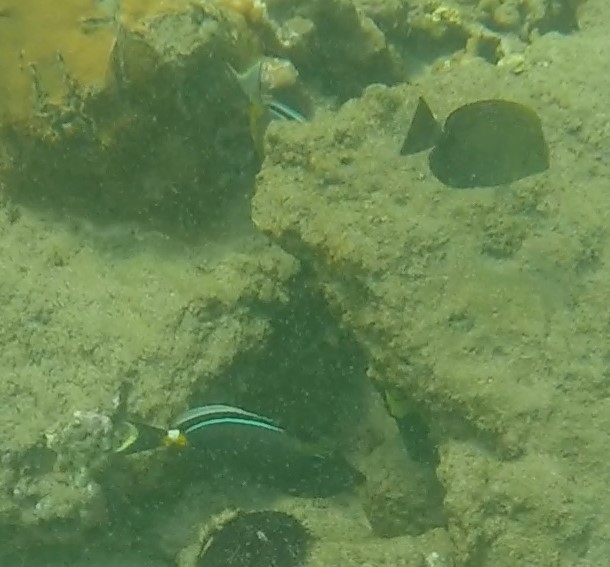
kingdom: Animalia
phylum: Chordata
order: Perciformes
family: Acanthuridae
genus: Naso
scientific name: Naso lituratus
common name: Orangespine unicornfish
